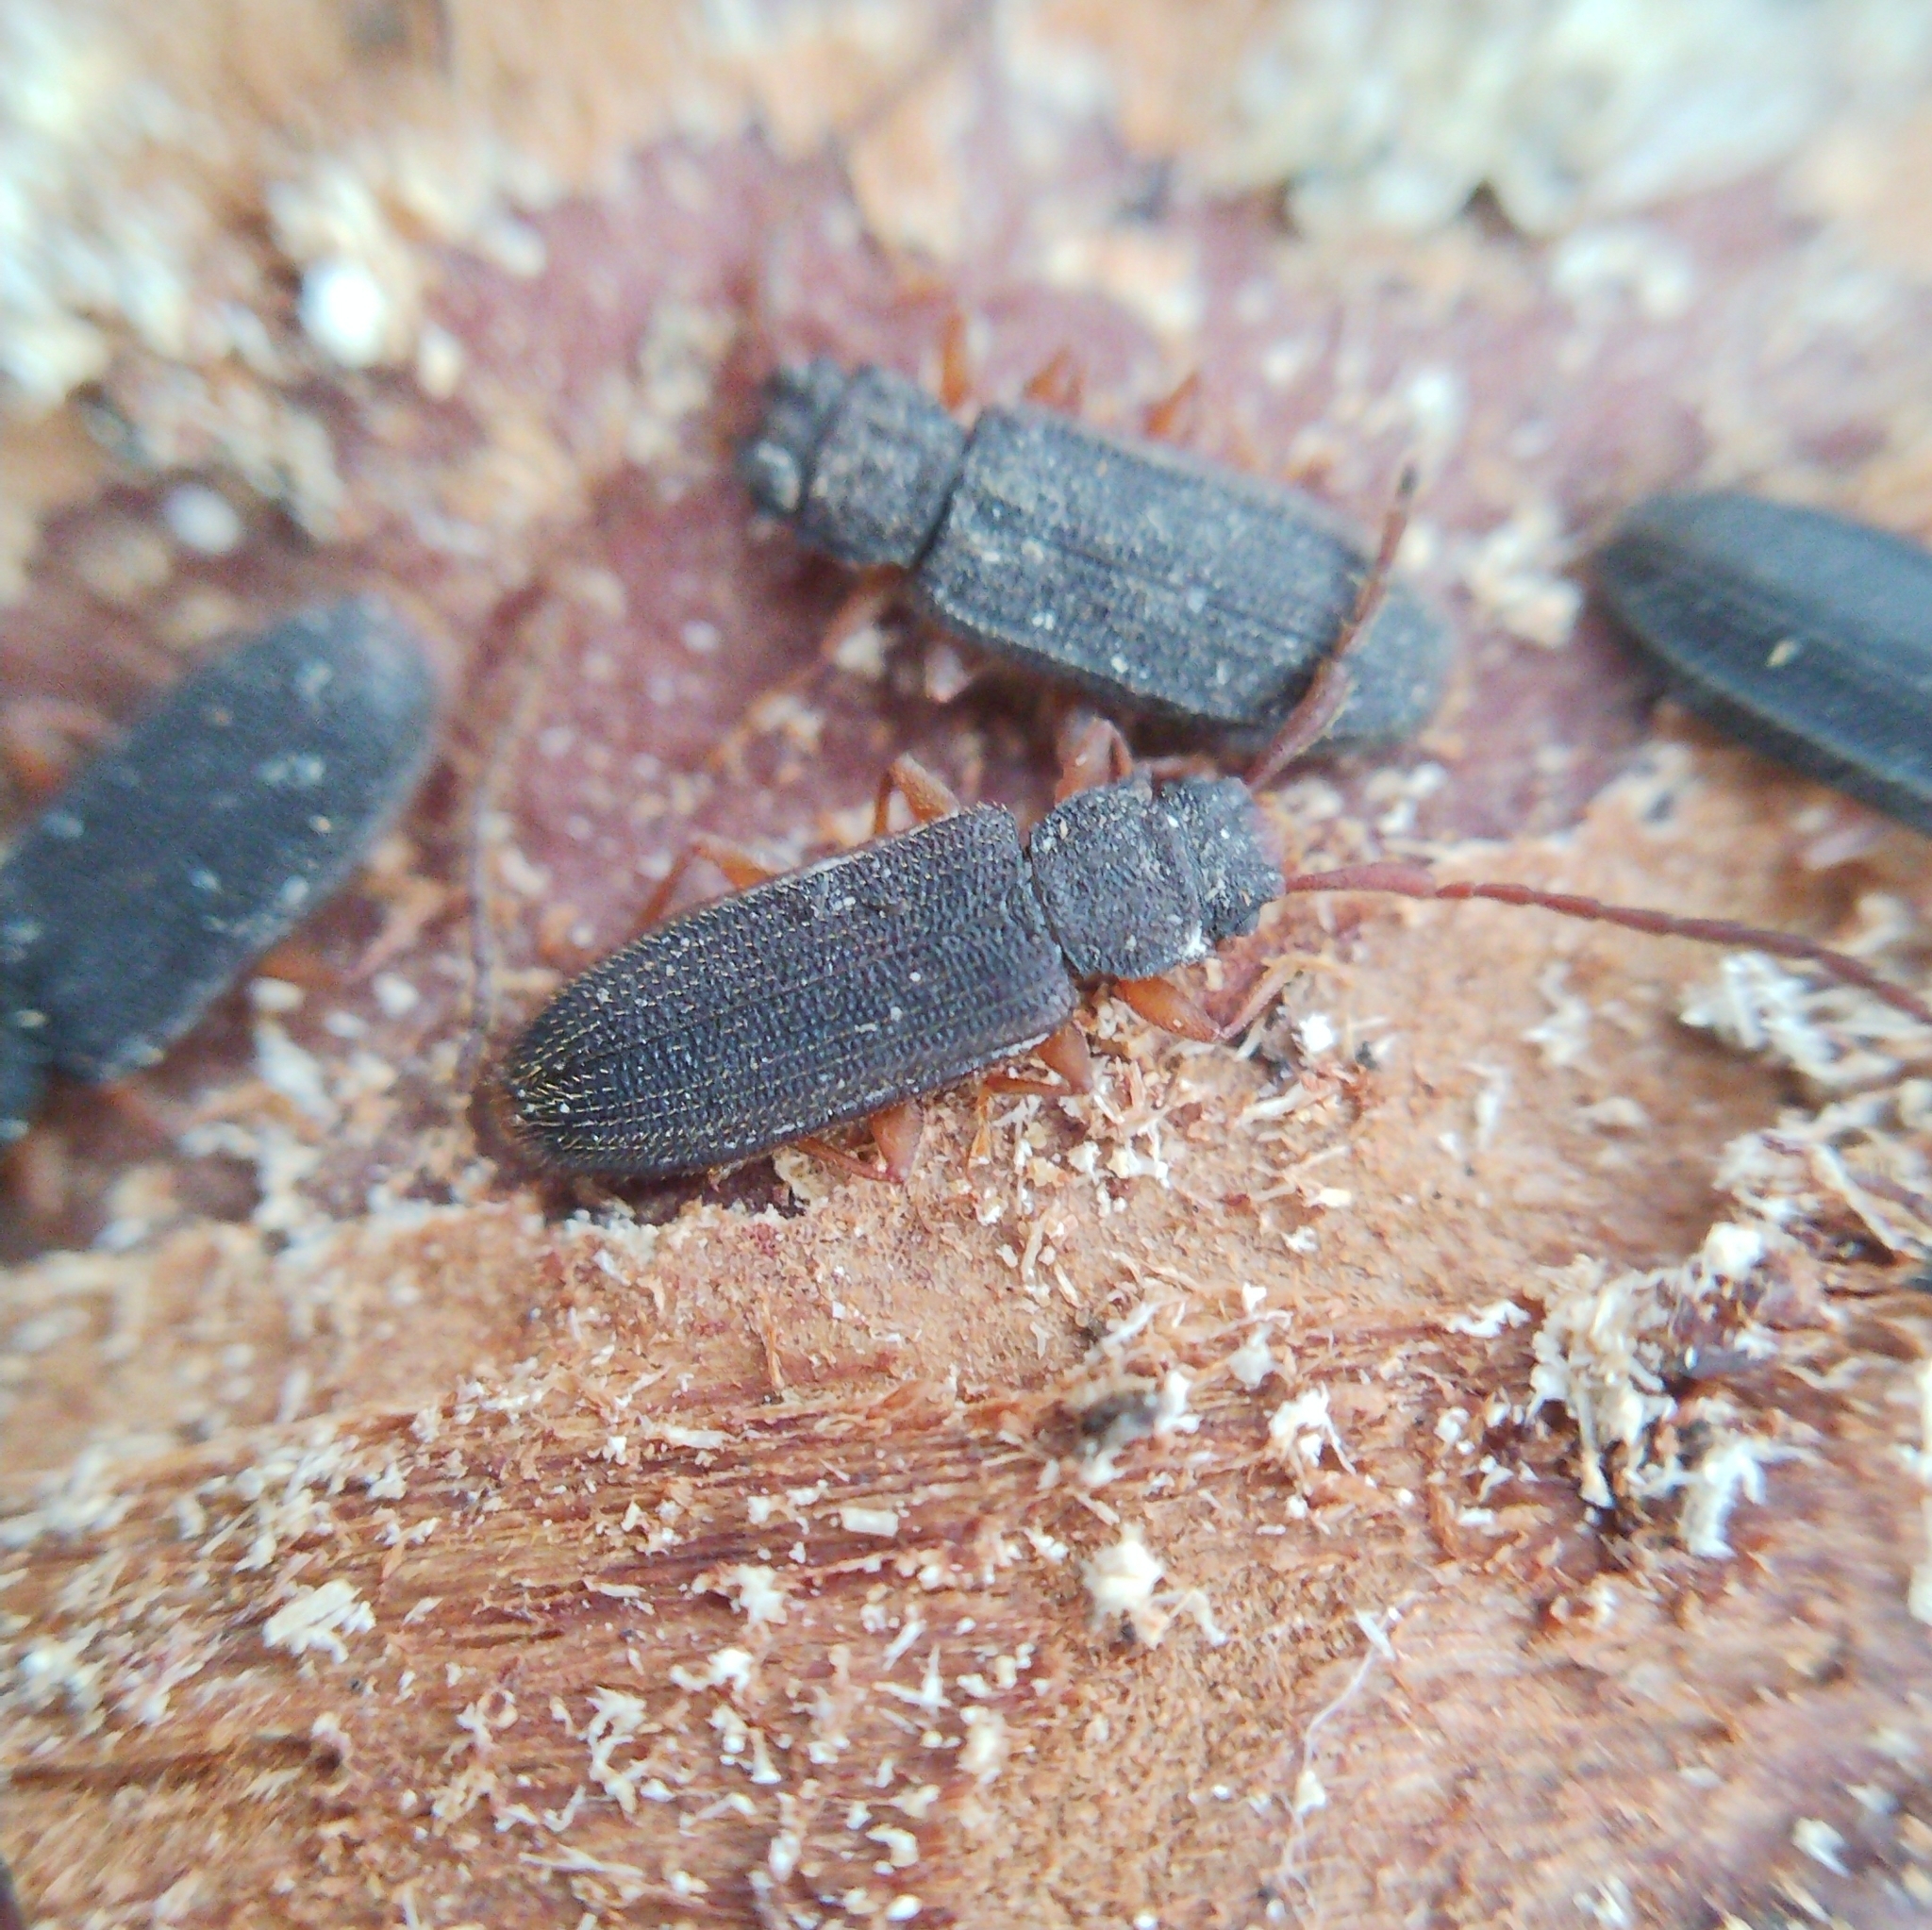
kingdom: Animalia
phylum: Arthropoda
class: Insecta
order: Coleoptera
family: Silvanidae
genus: Uleiota
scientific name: Uleiota planatus
